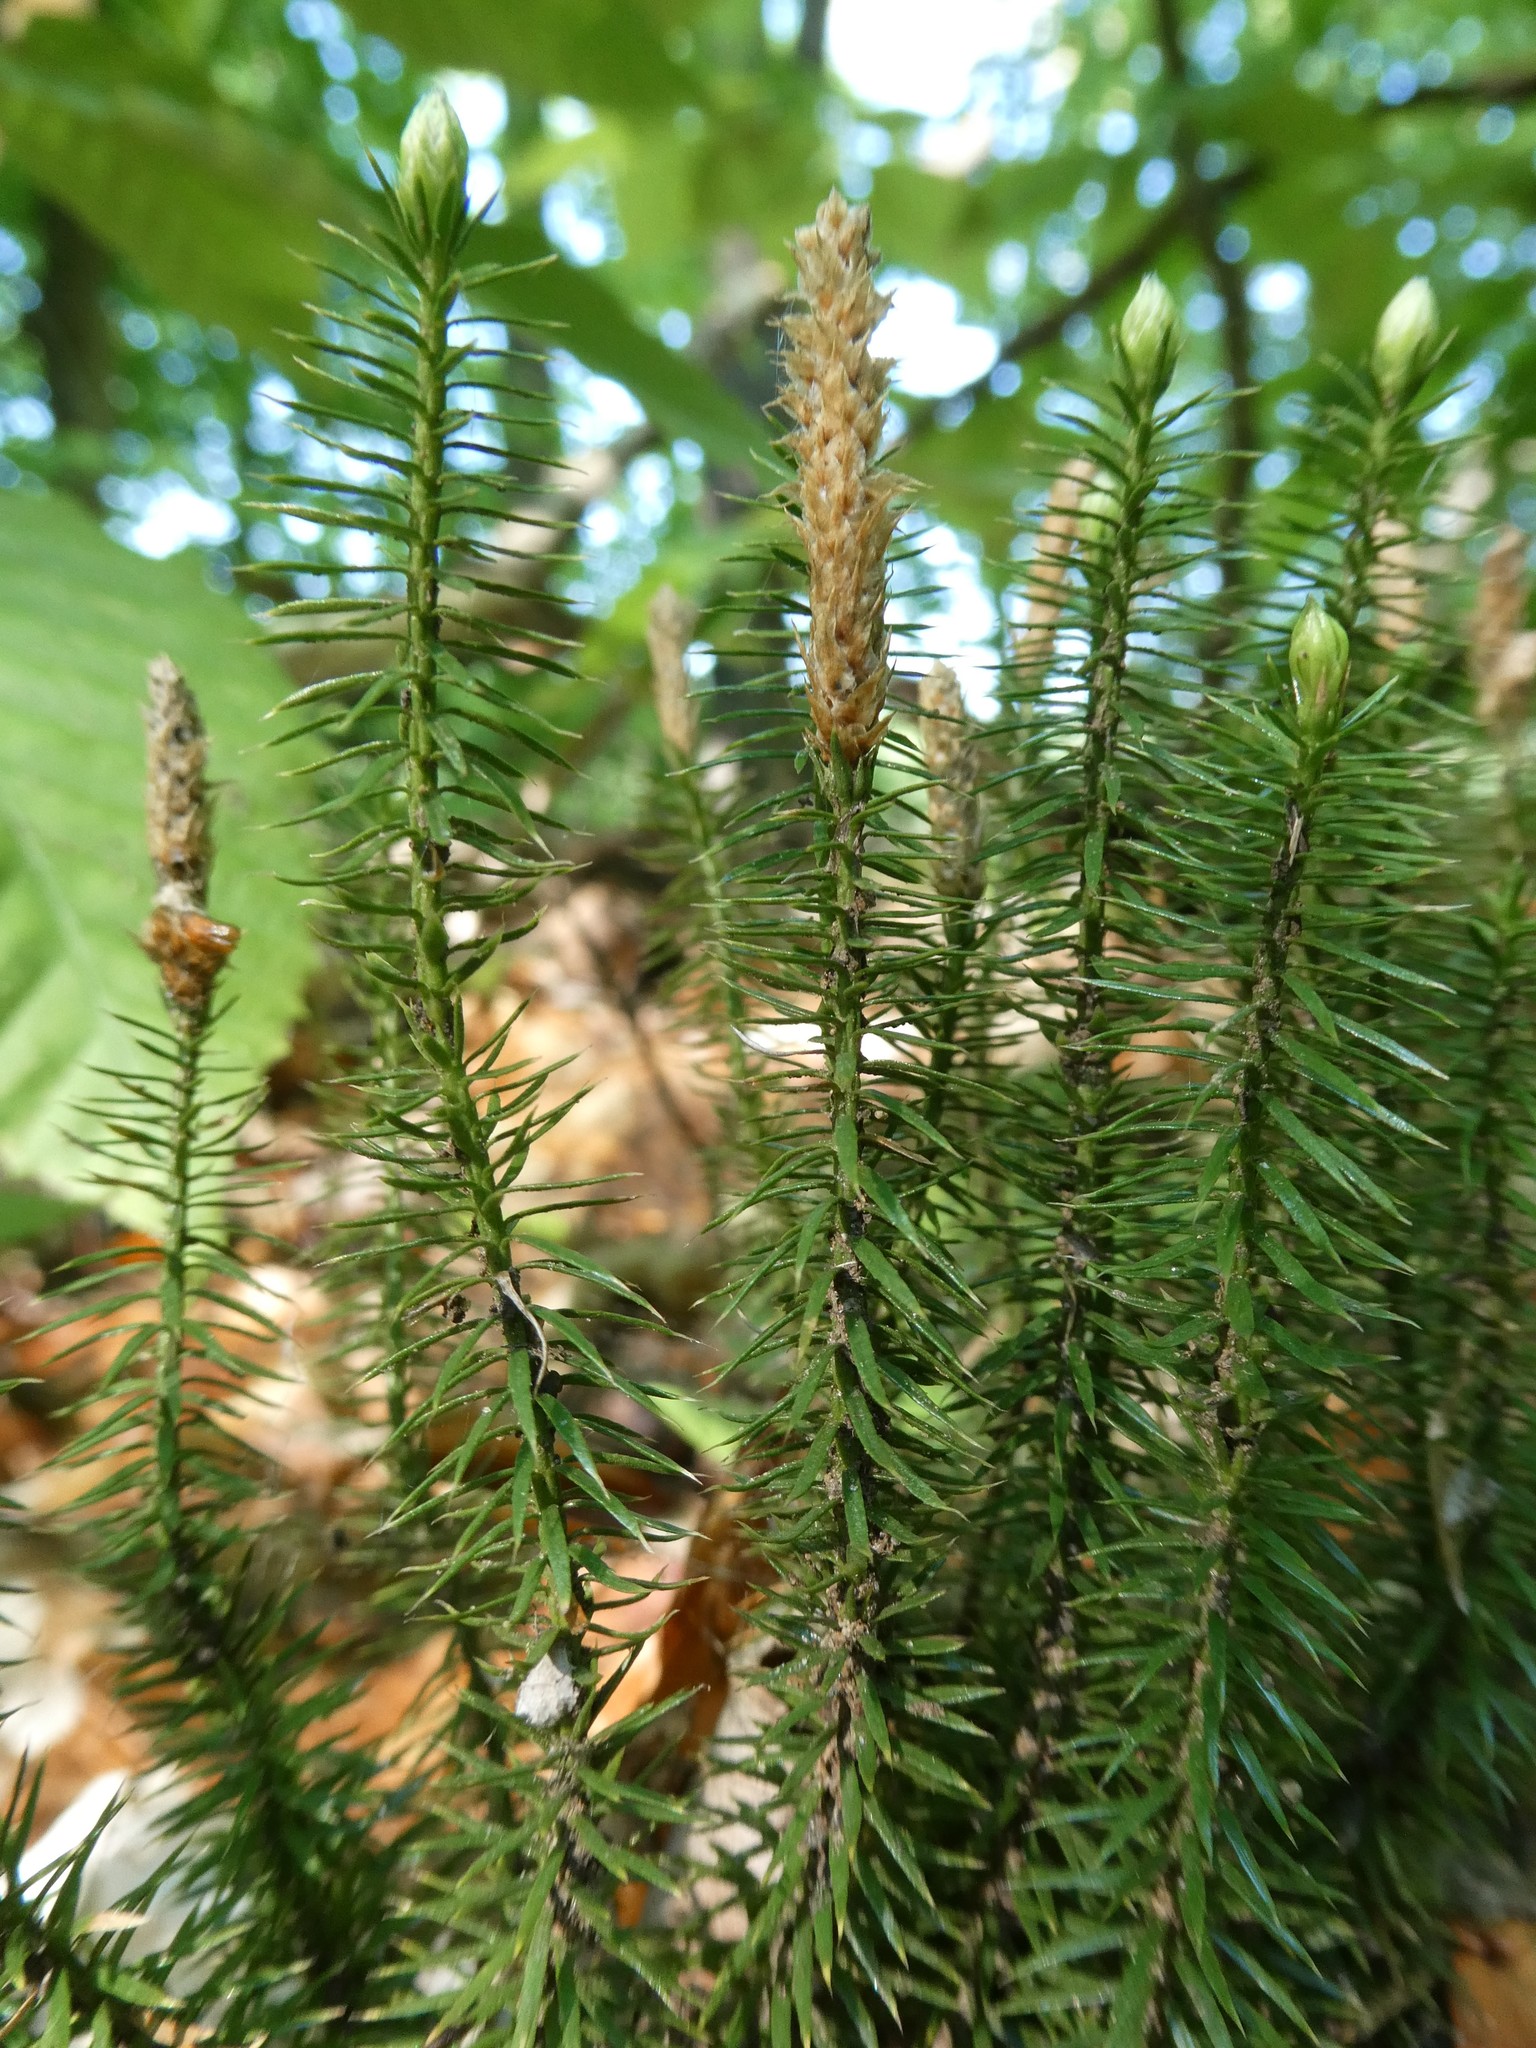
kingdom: Plantae
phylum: Tracheophyta
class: Lycopodiopsida
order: Lycopodiales
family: Lycopodiaceae
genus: Spinulum
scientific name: Spinulum annotinum
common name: Interrupted club-moss
